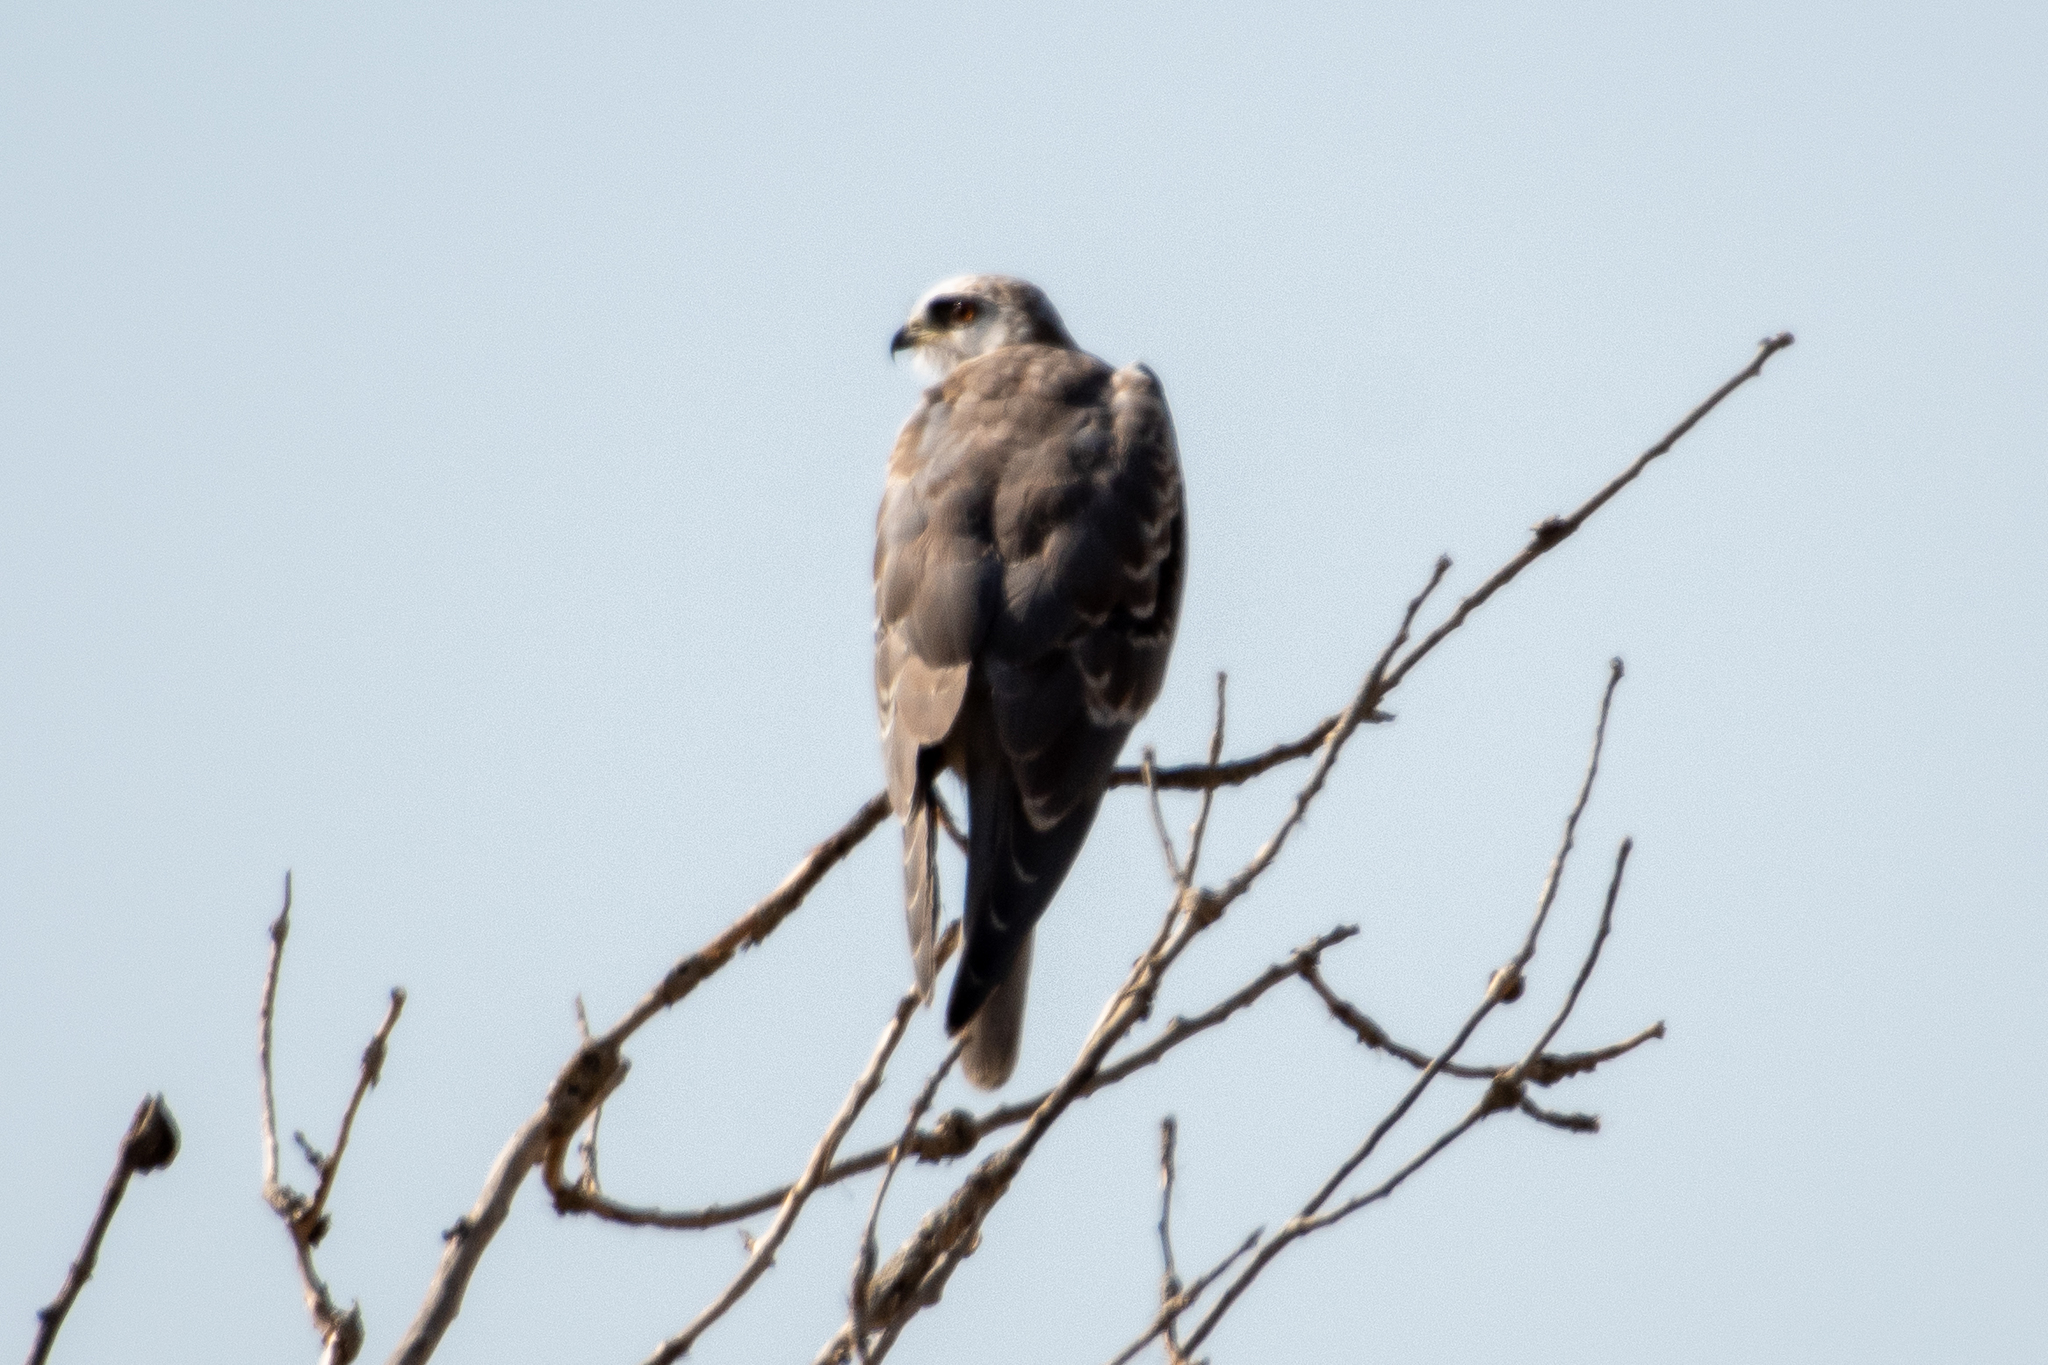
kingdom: Animalia
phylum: Chordata
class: Aves
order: Accipitriformes
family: Accipitridae
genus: Elanus
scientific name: Elanus leucurus
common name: White-tailed kite
